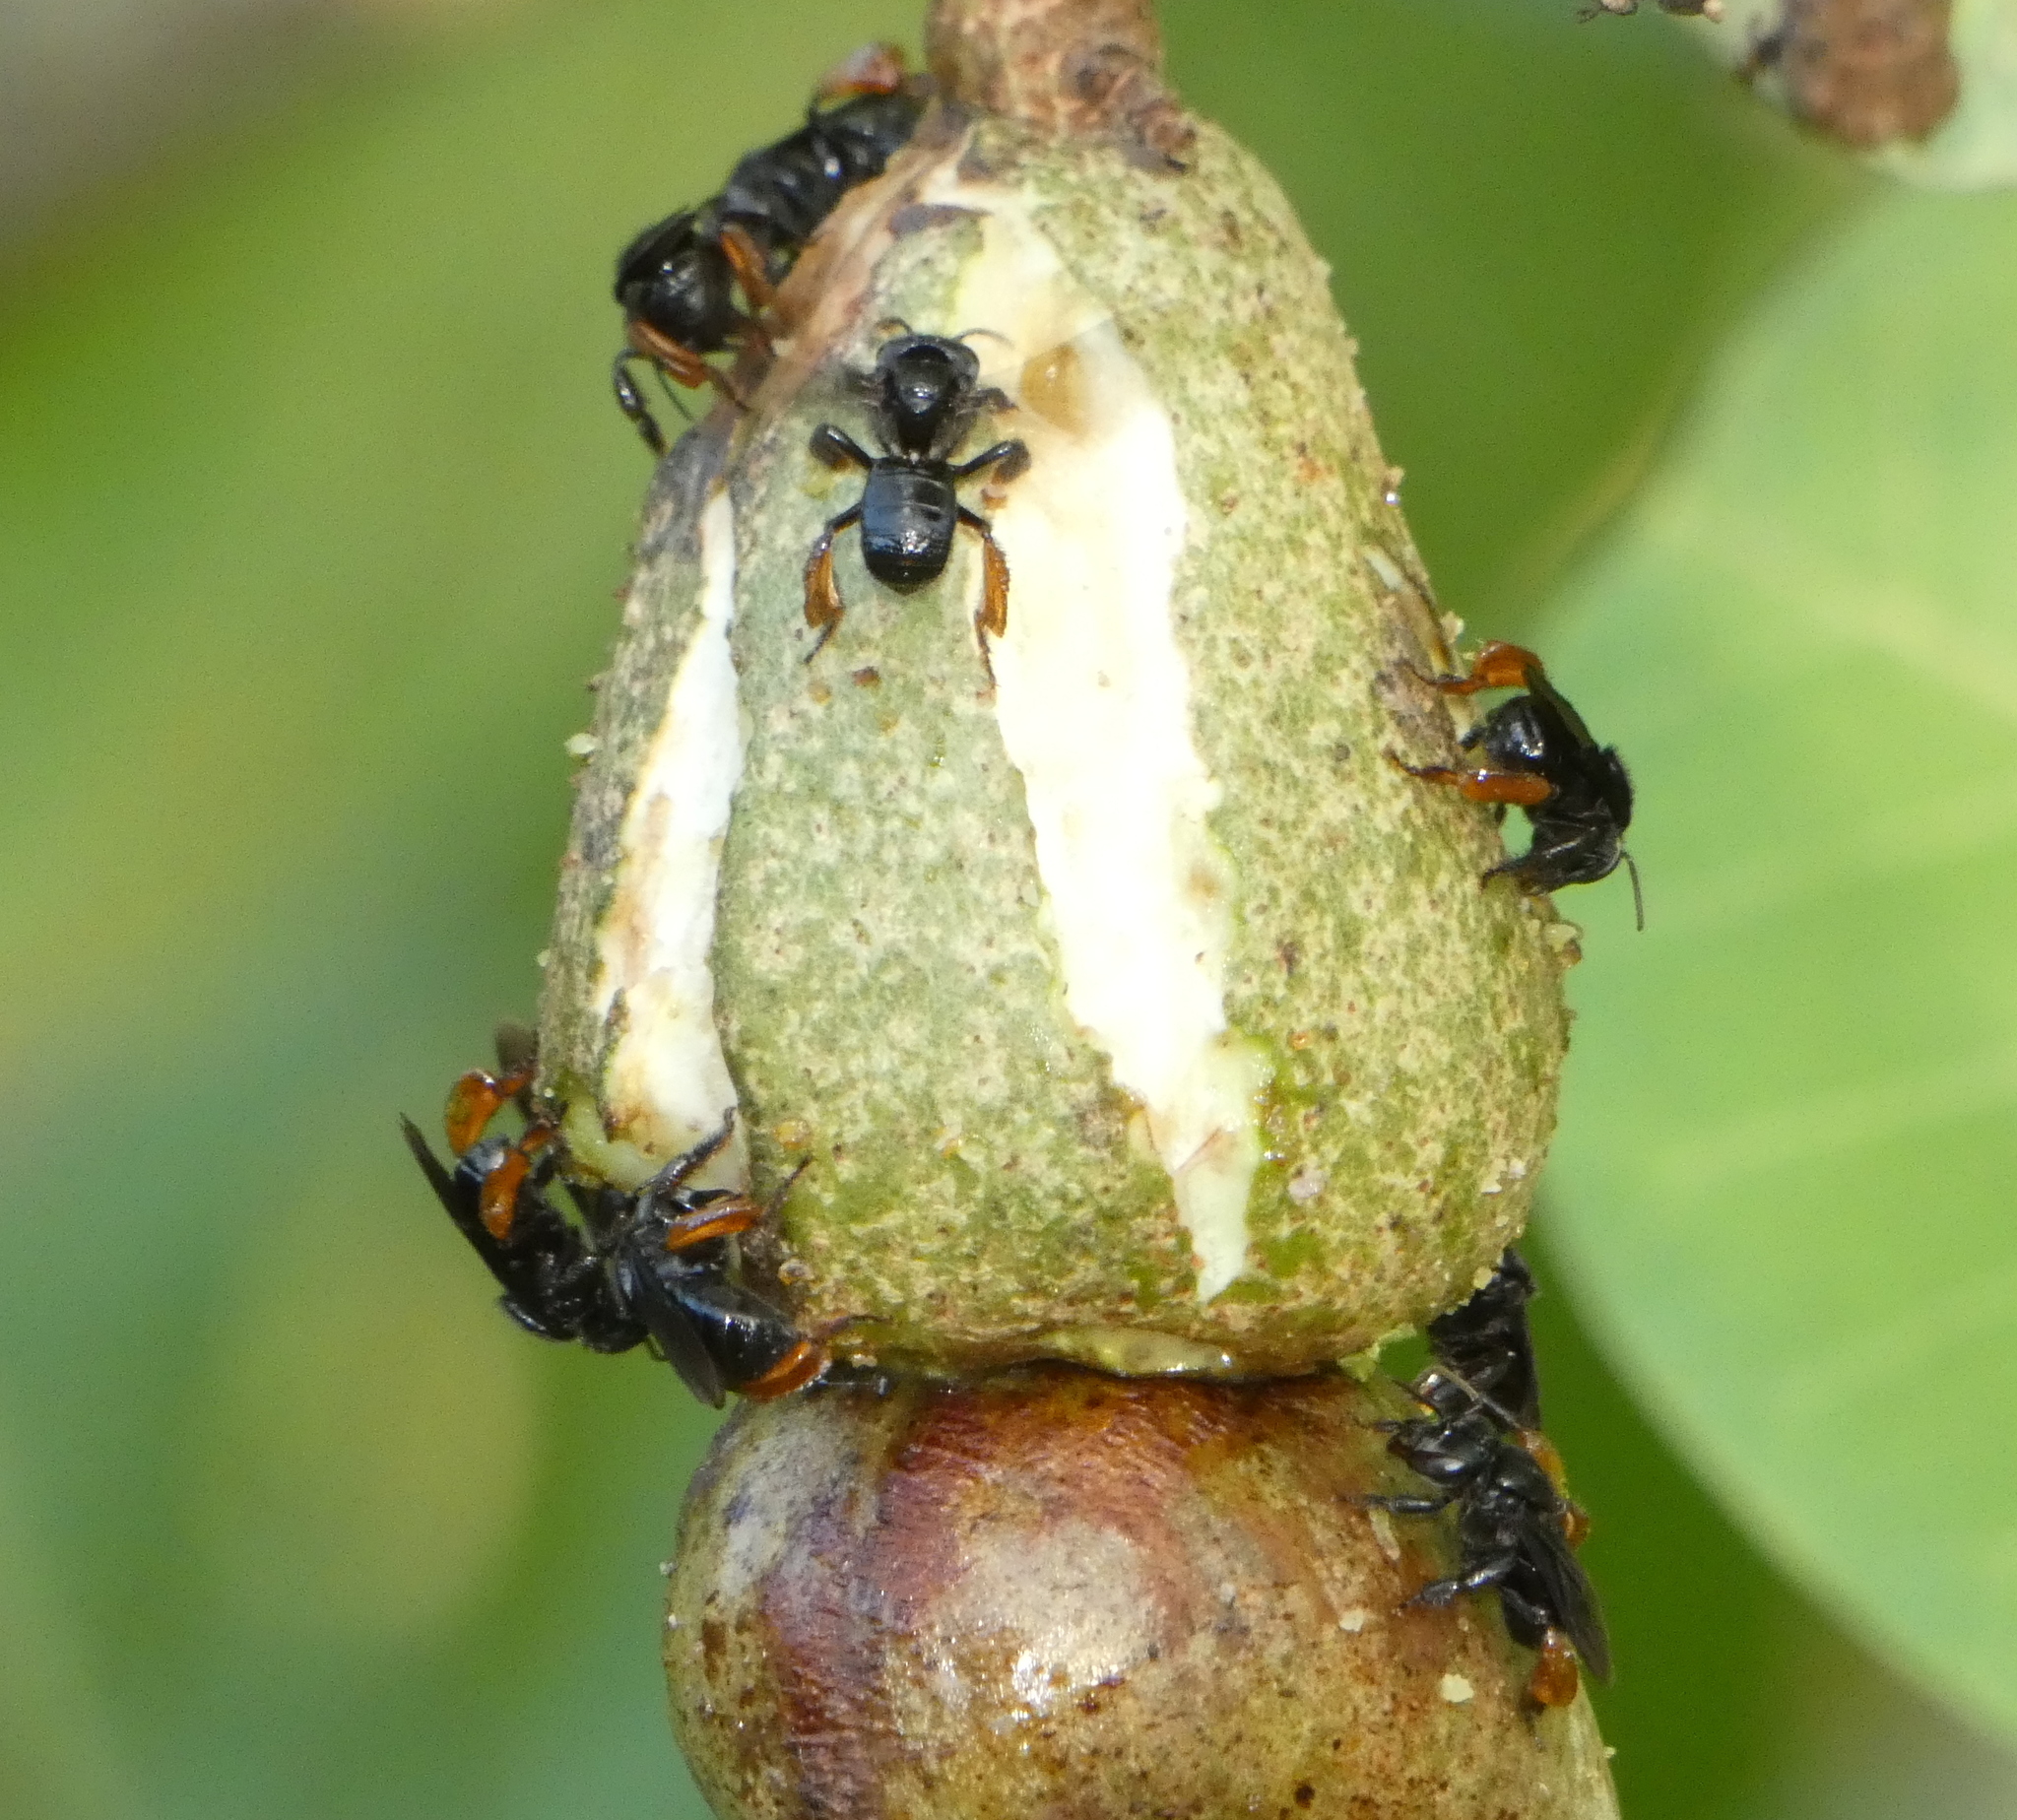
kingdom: Animalia
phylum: Arthropoda
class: Insecta
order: Hymenoptera
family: Apidae
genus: Trigona
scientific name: Trigona spinipes
